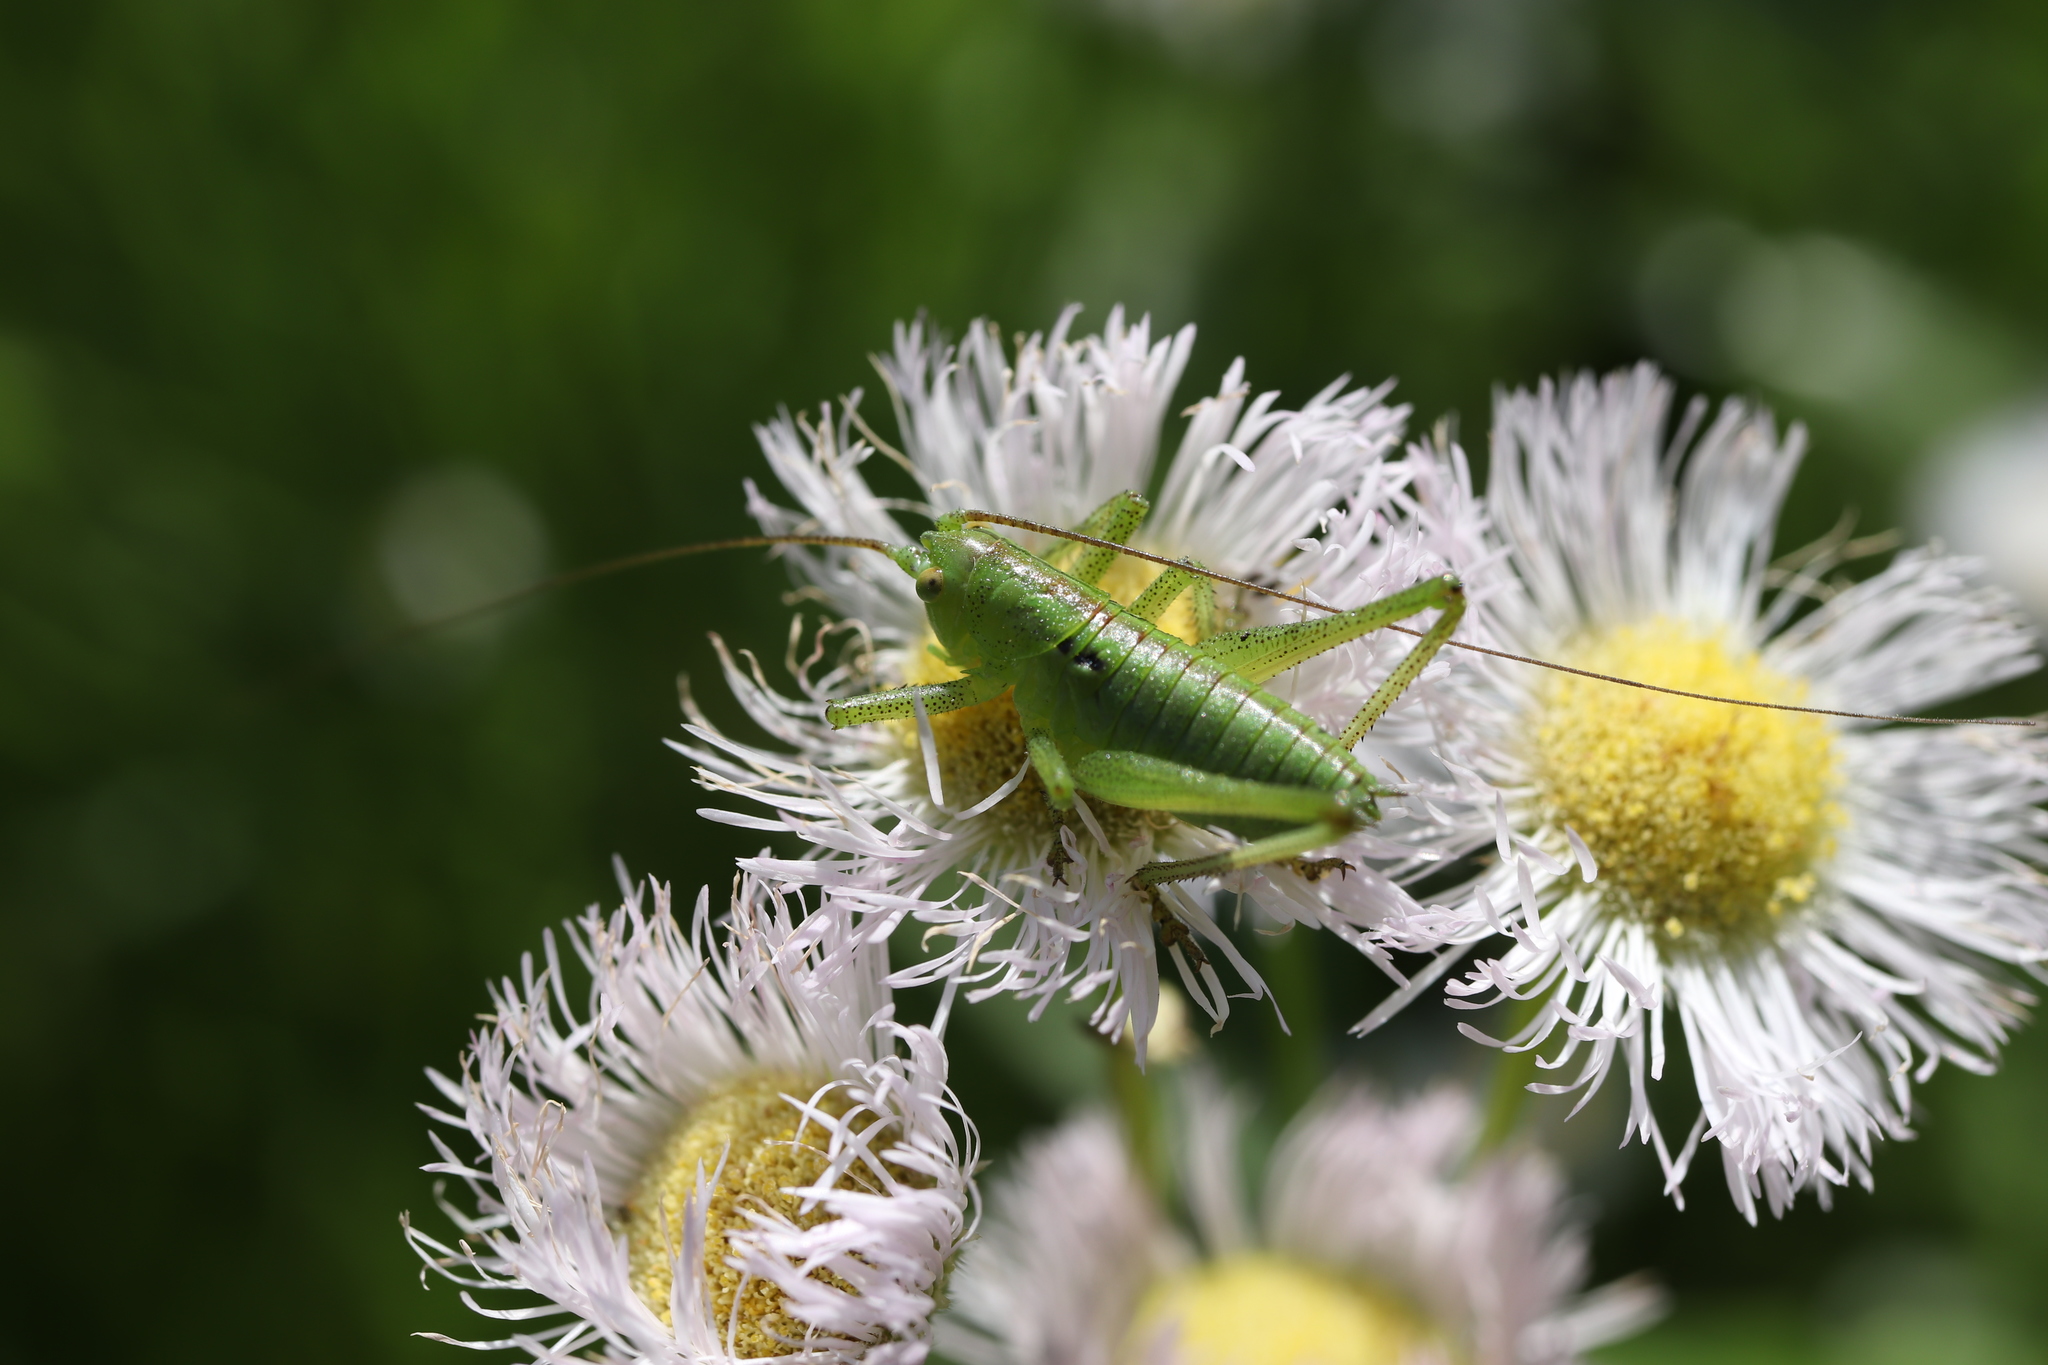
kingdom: Animalia
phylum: Arthropoda
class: Insecta
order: Orthoptera
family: Tettigoniidae
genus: Tettigonia
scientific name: Tettigonia orientalis
